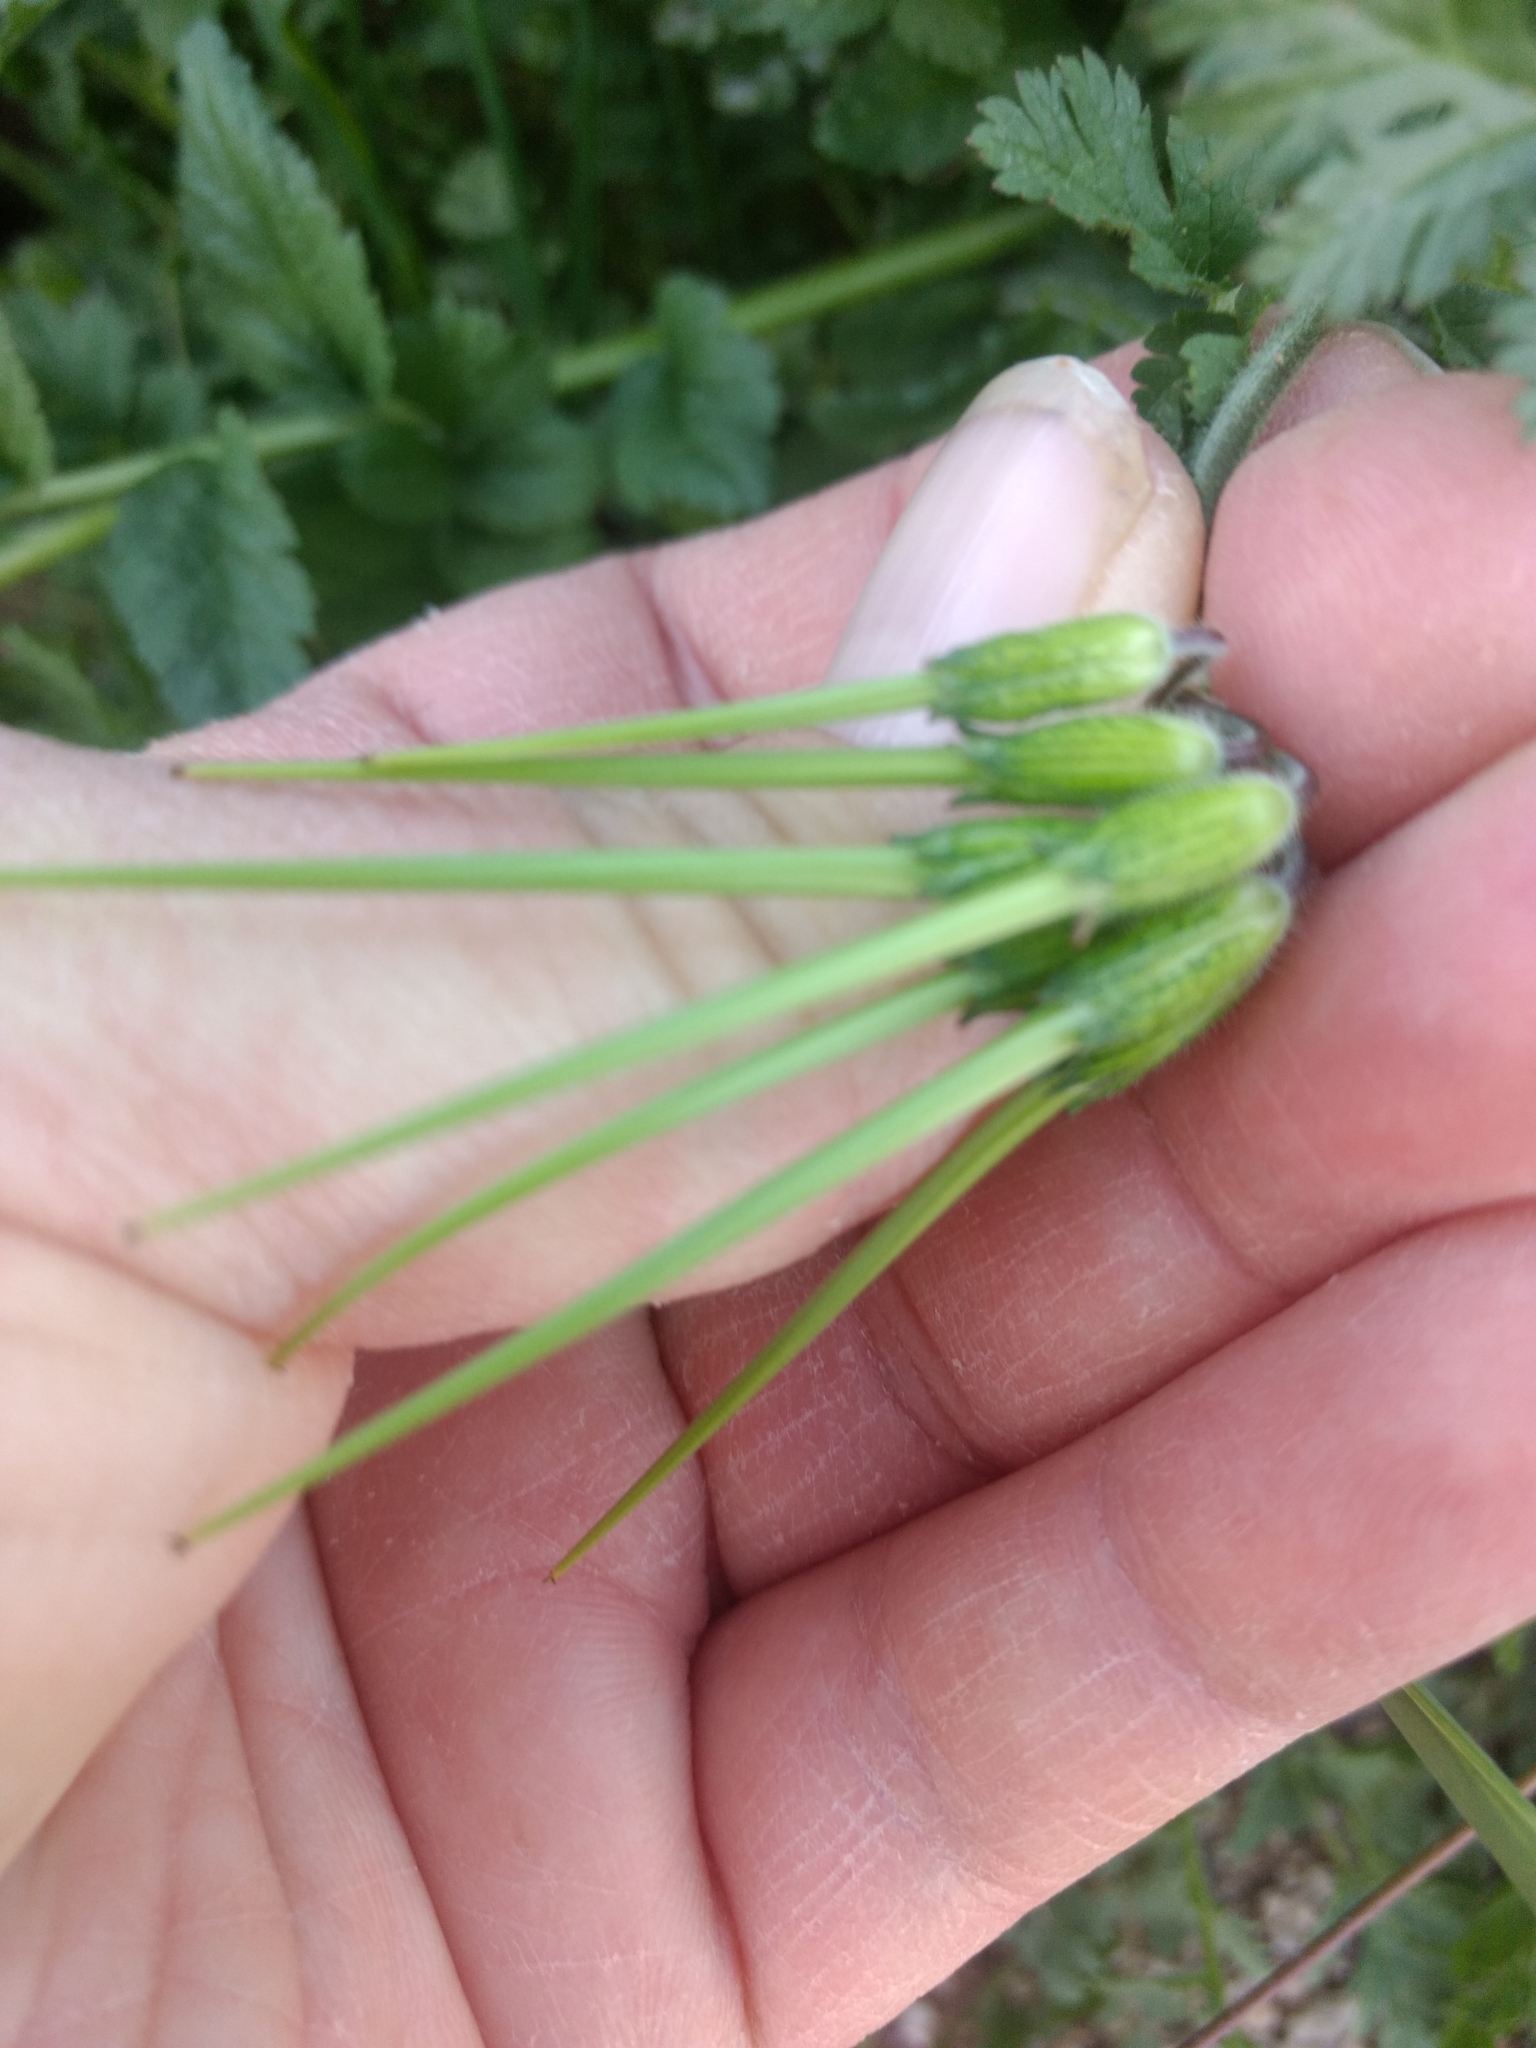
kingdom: Plantae
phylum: Tracheophyta
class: Magnoliopsida
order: Geraniales
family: Geraniaceae
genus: Erodium
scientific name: Erodium moschatum
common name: Musk stork's-bill
